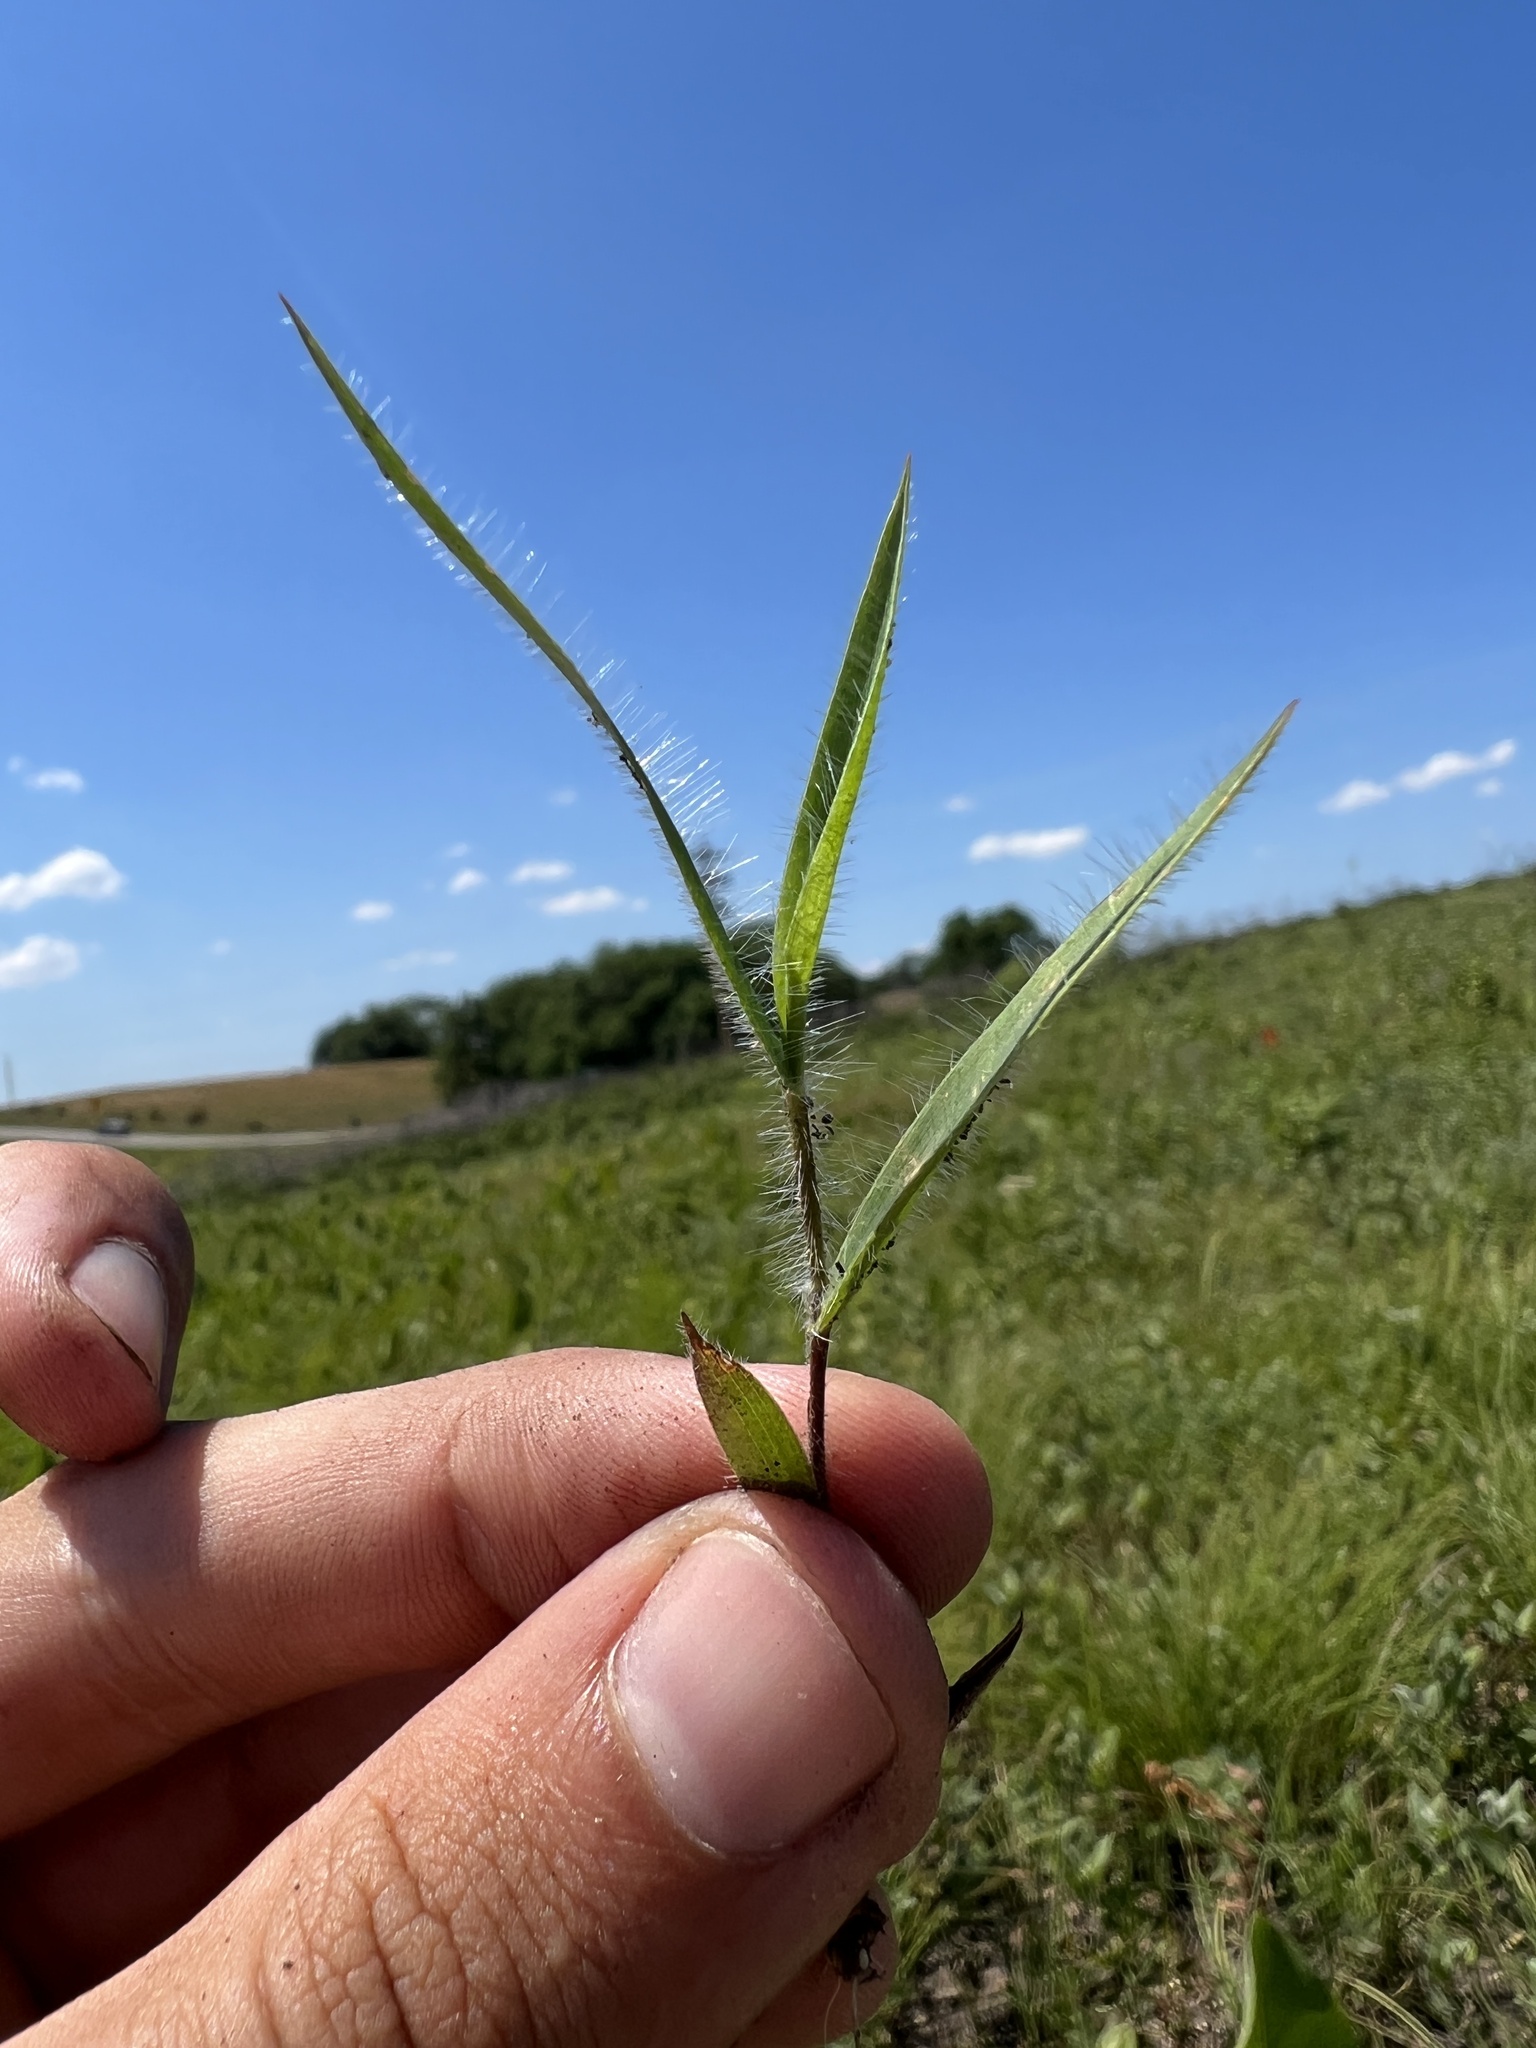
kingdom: Plantae
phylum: Tracheophyta
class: Liliopsida
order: Poales
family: Poaceae
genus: Dichanthelium
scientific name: Dichanthelium praecocius
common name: Early-branching panicgrass
